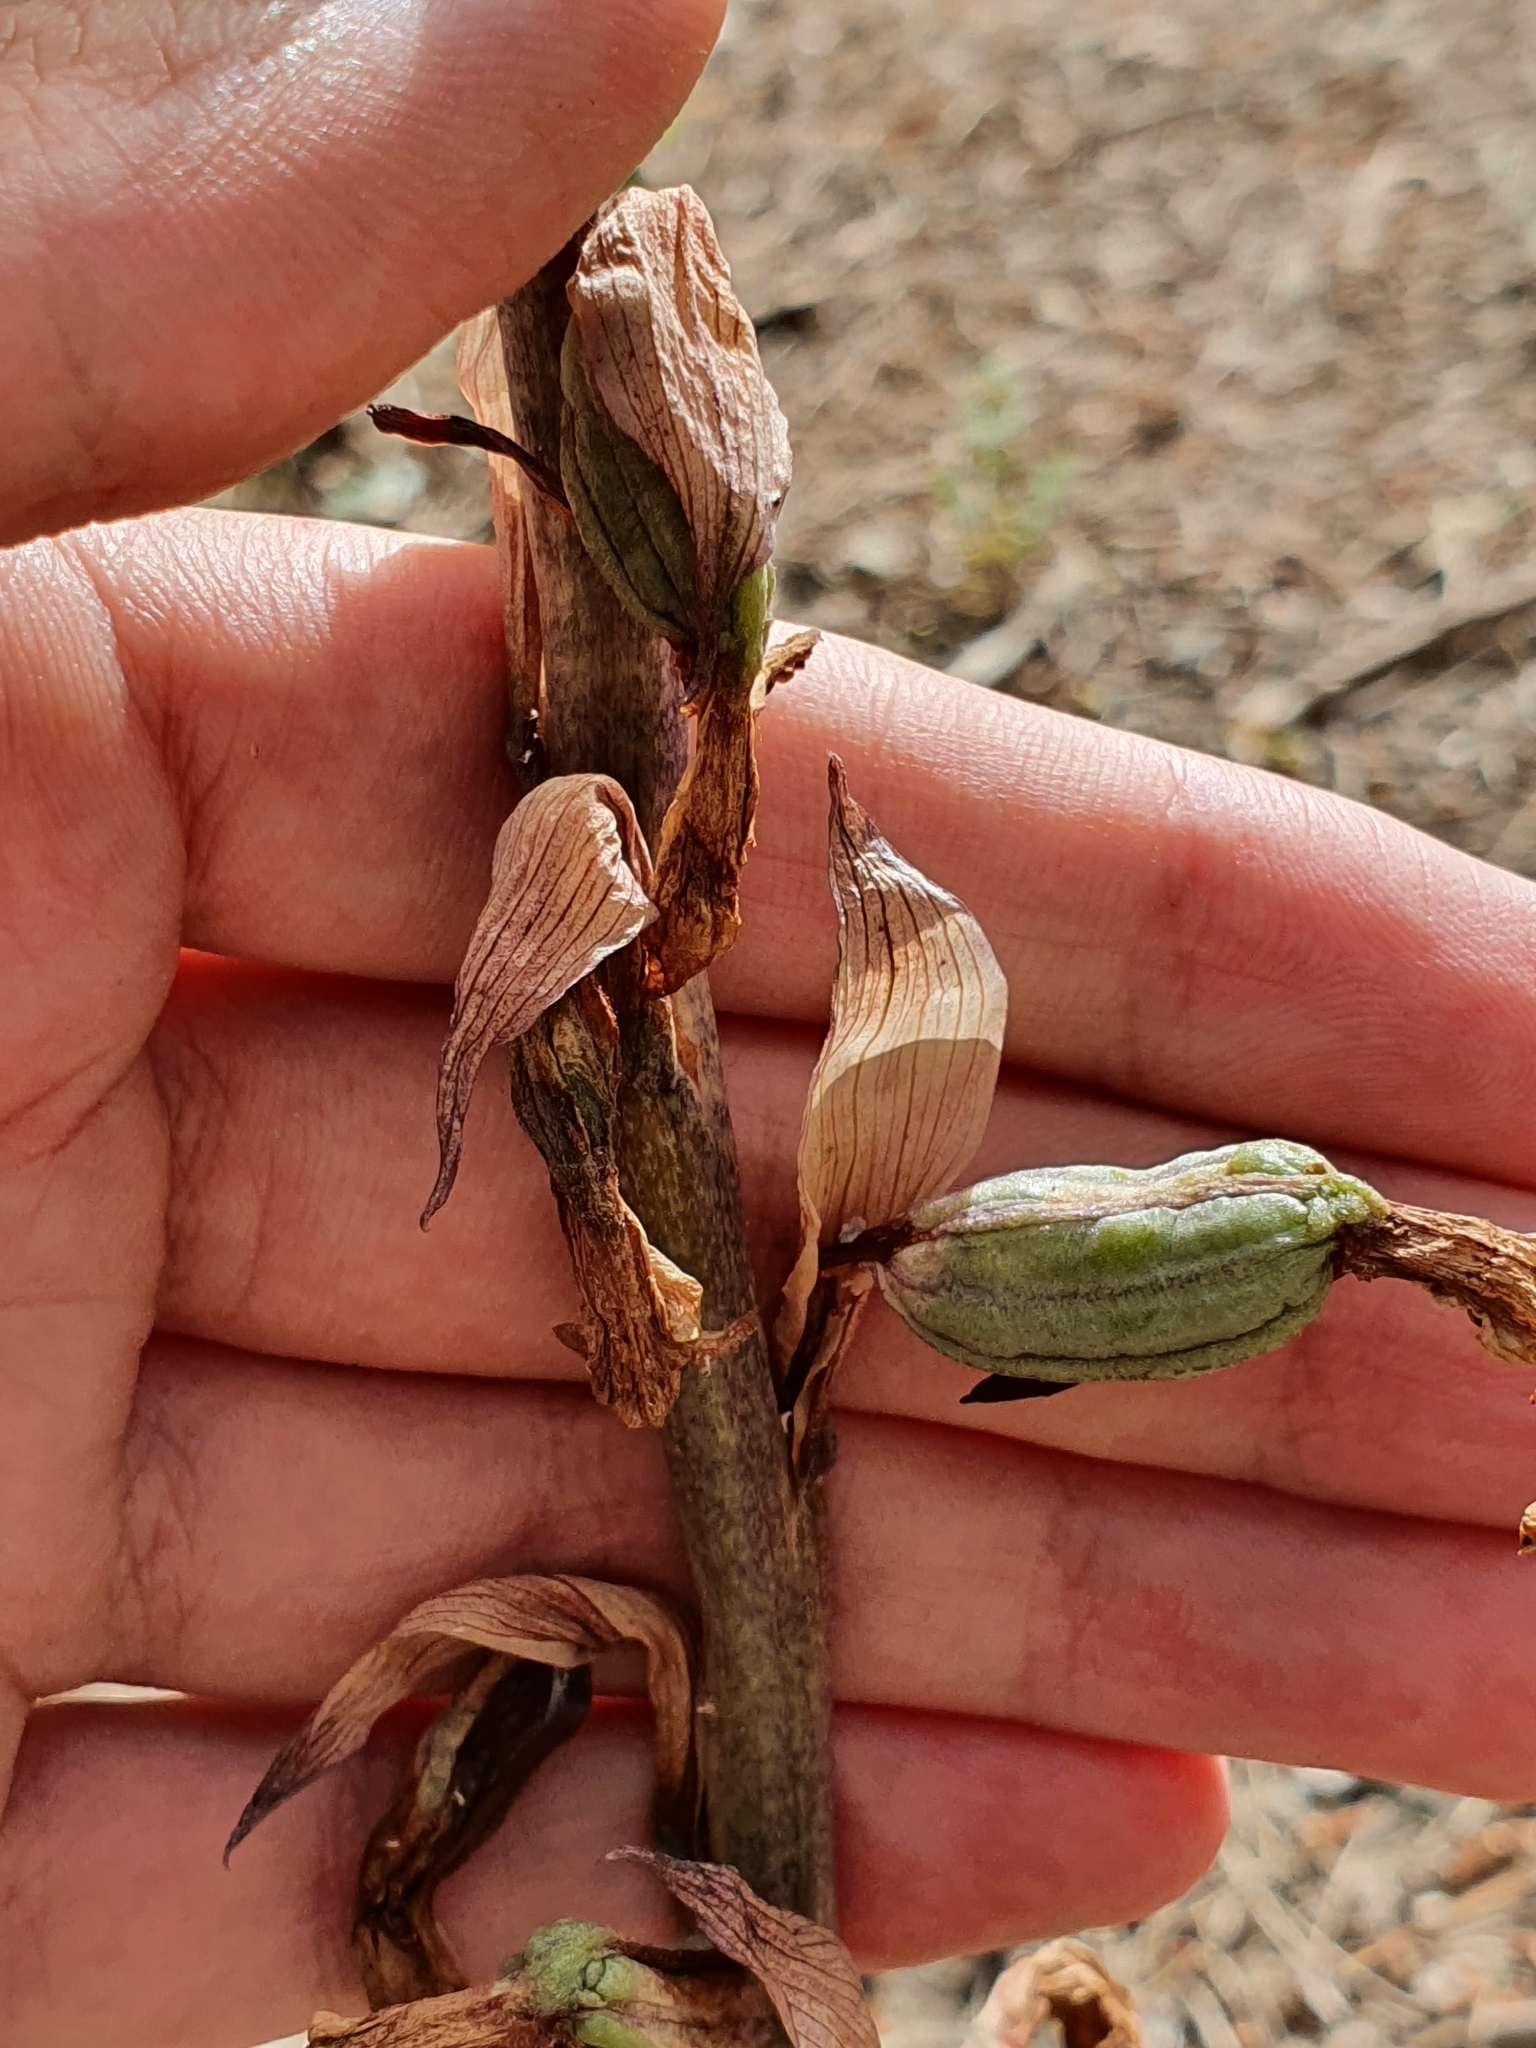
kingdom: Plantae
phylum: Tracheophyta
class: Liliopsida
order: Asparagales
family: Orchidaceae
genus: Limodorum
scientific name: Limodorum abortivum
